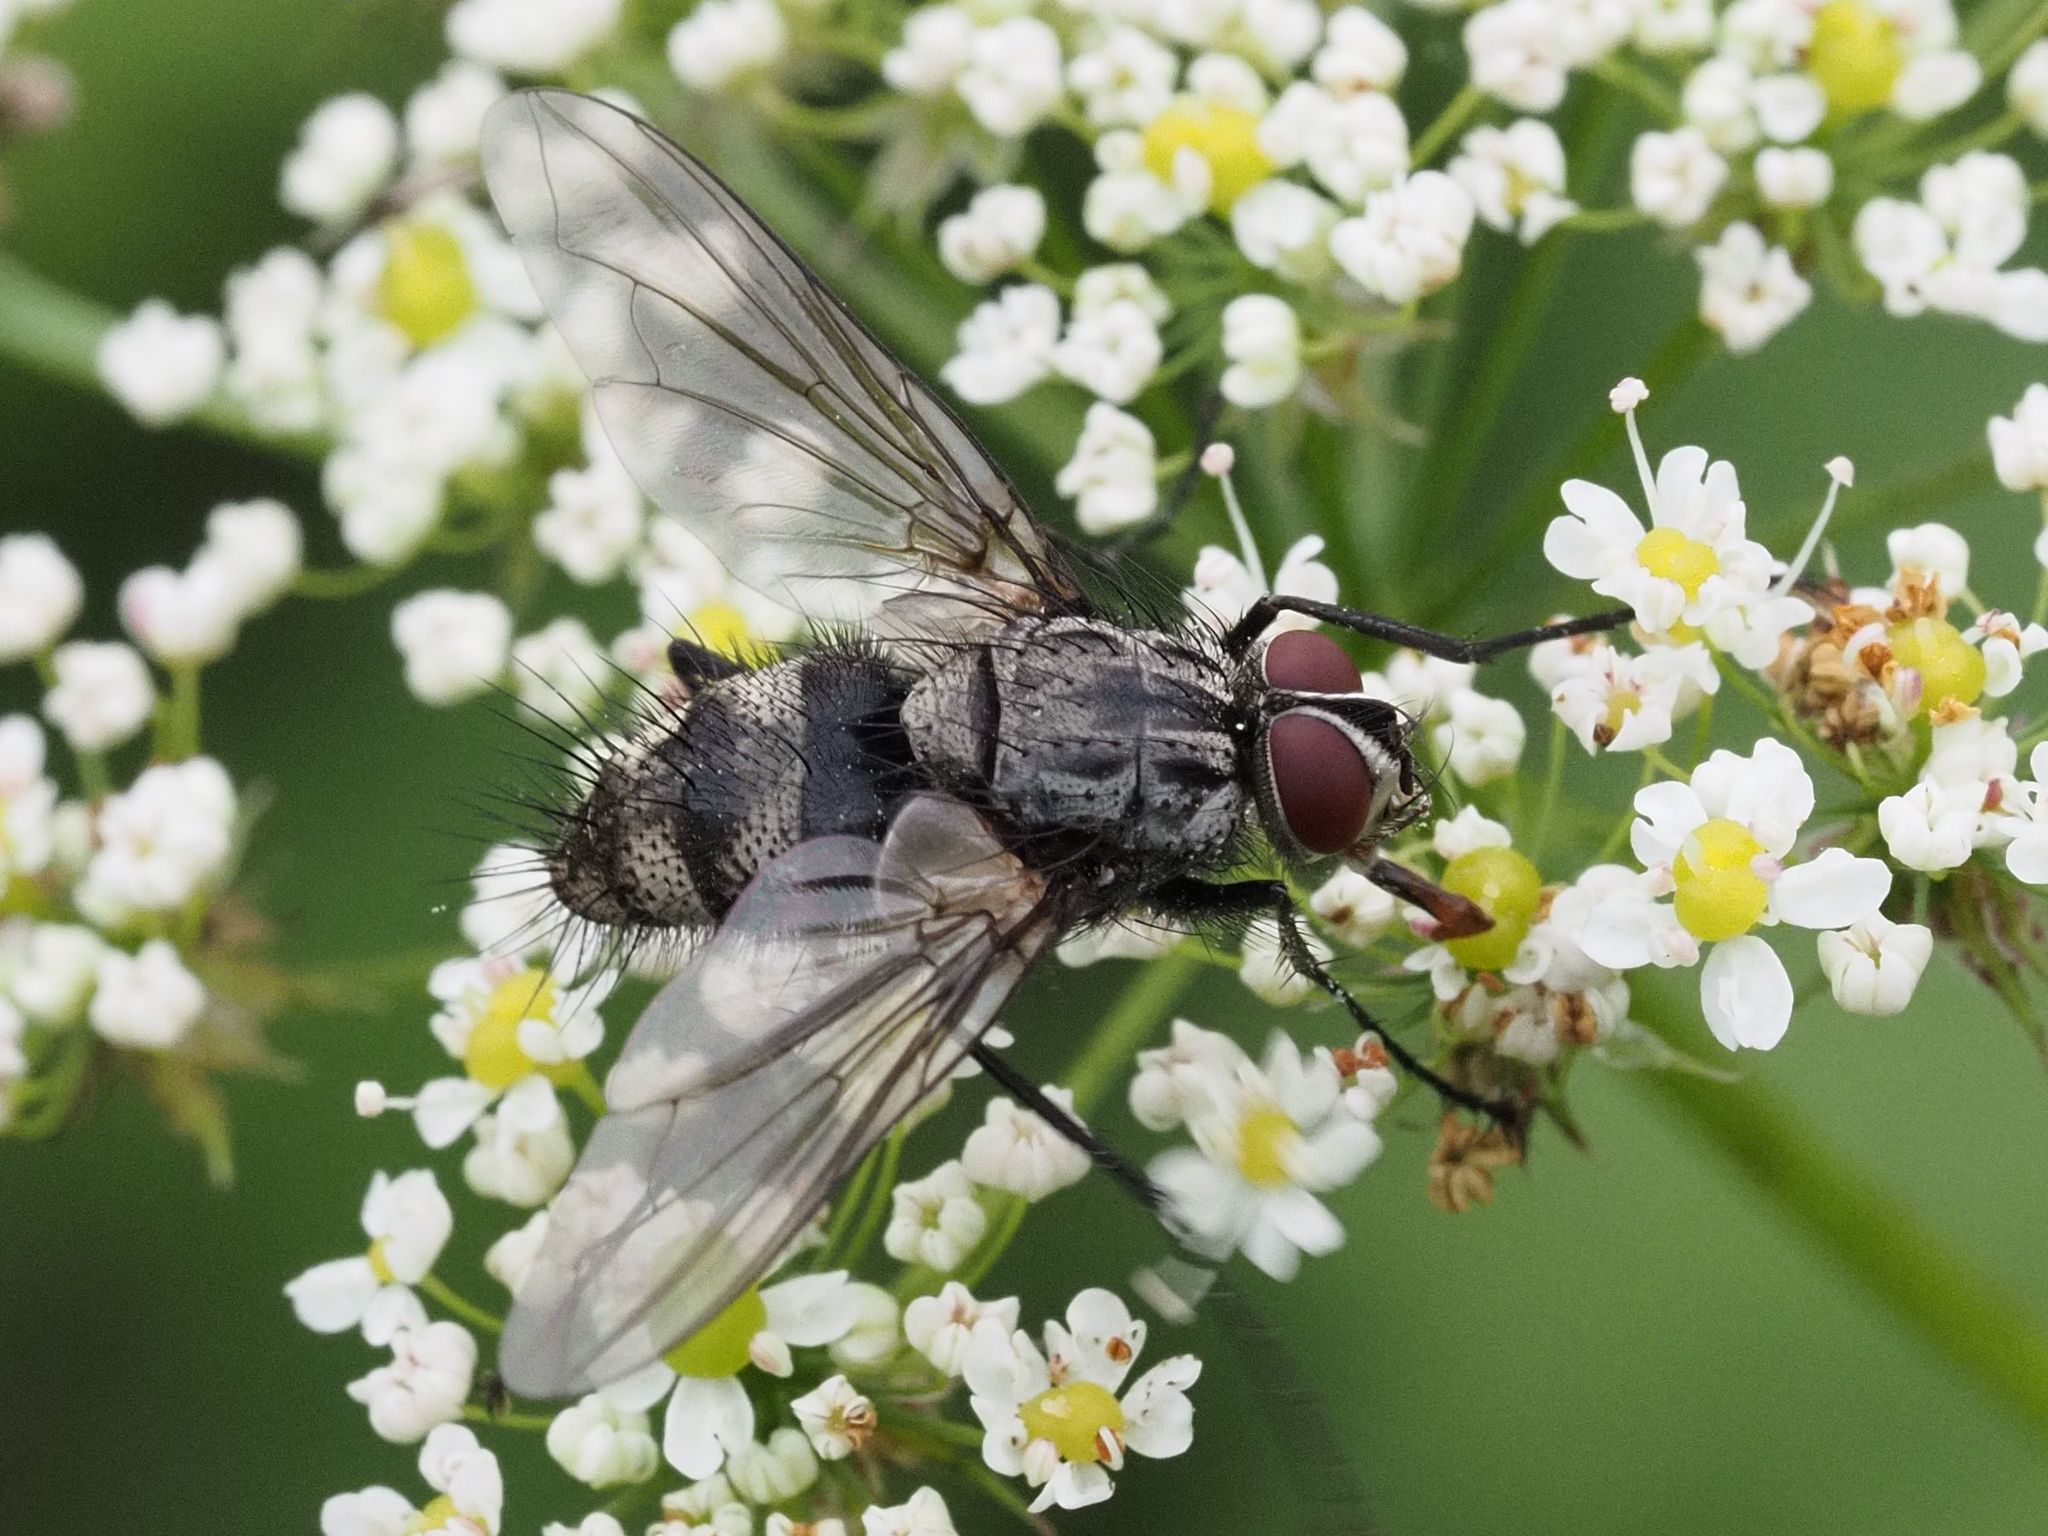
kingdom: Animalia
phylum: Arthropoda
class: Insecta
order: Diptera
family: Tachinidae
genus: Dinera
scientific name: Dinera ferina
